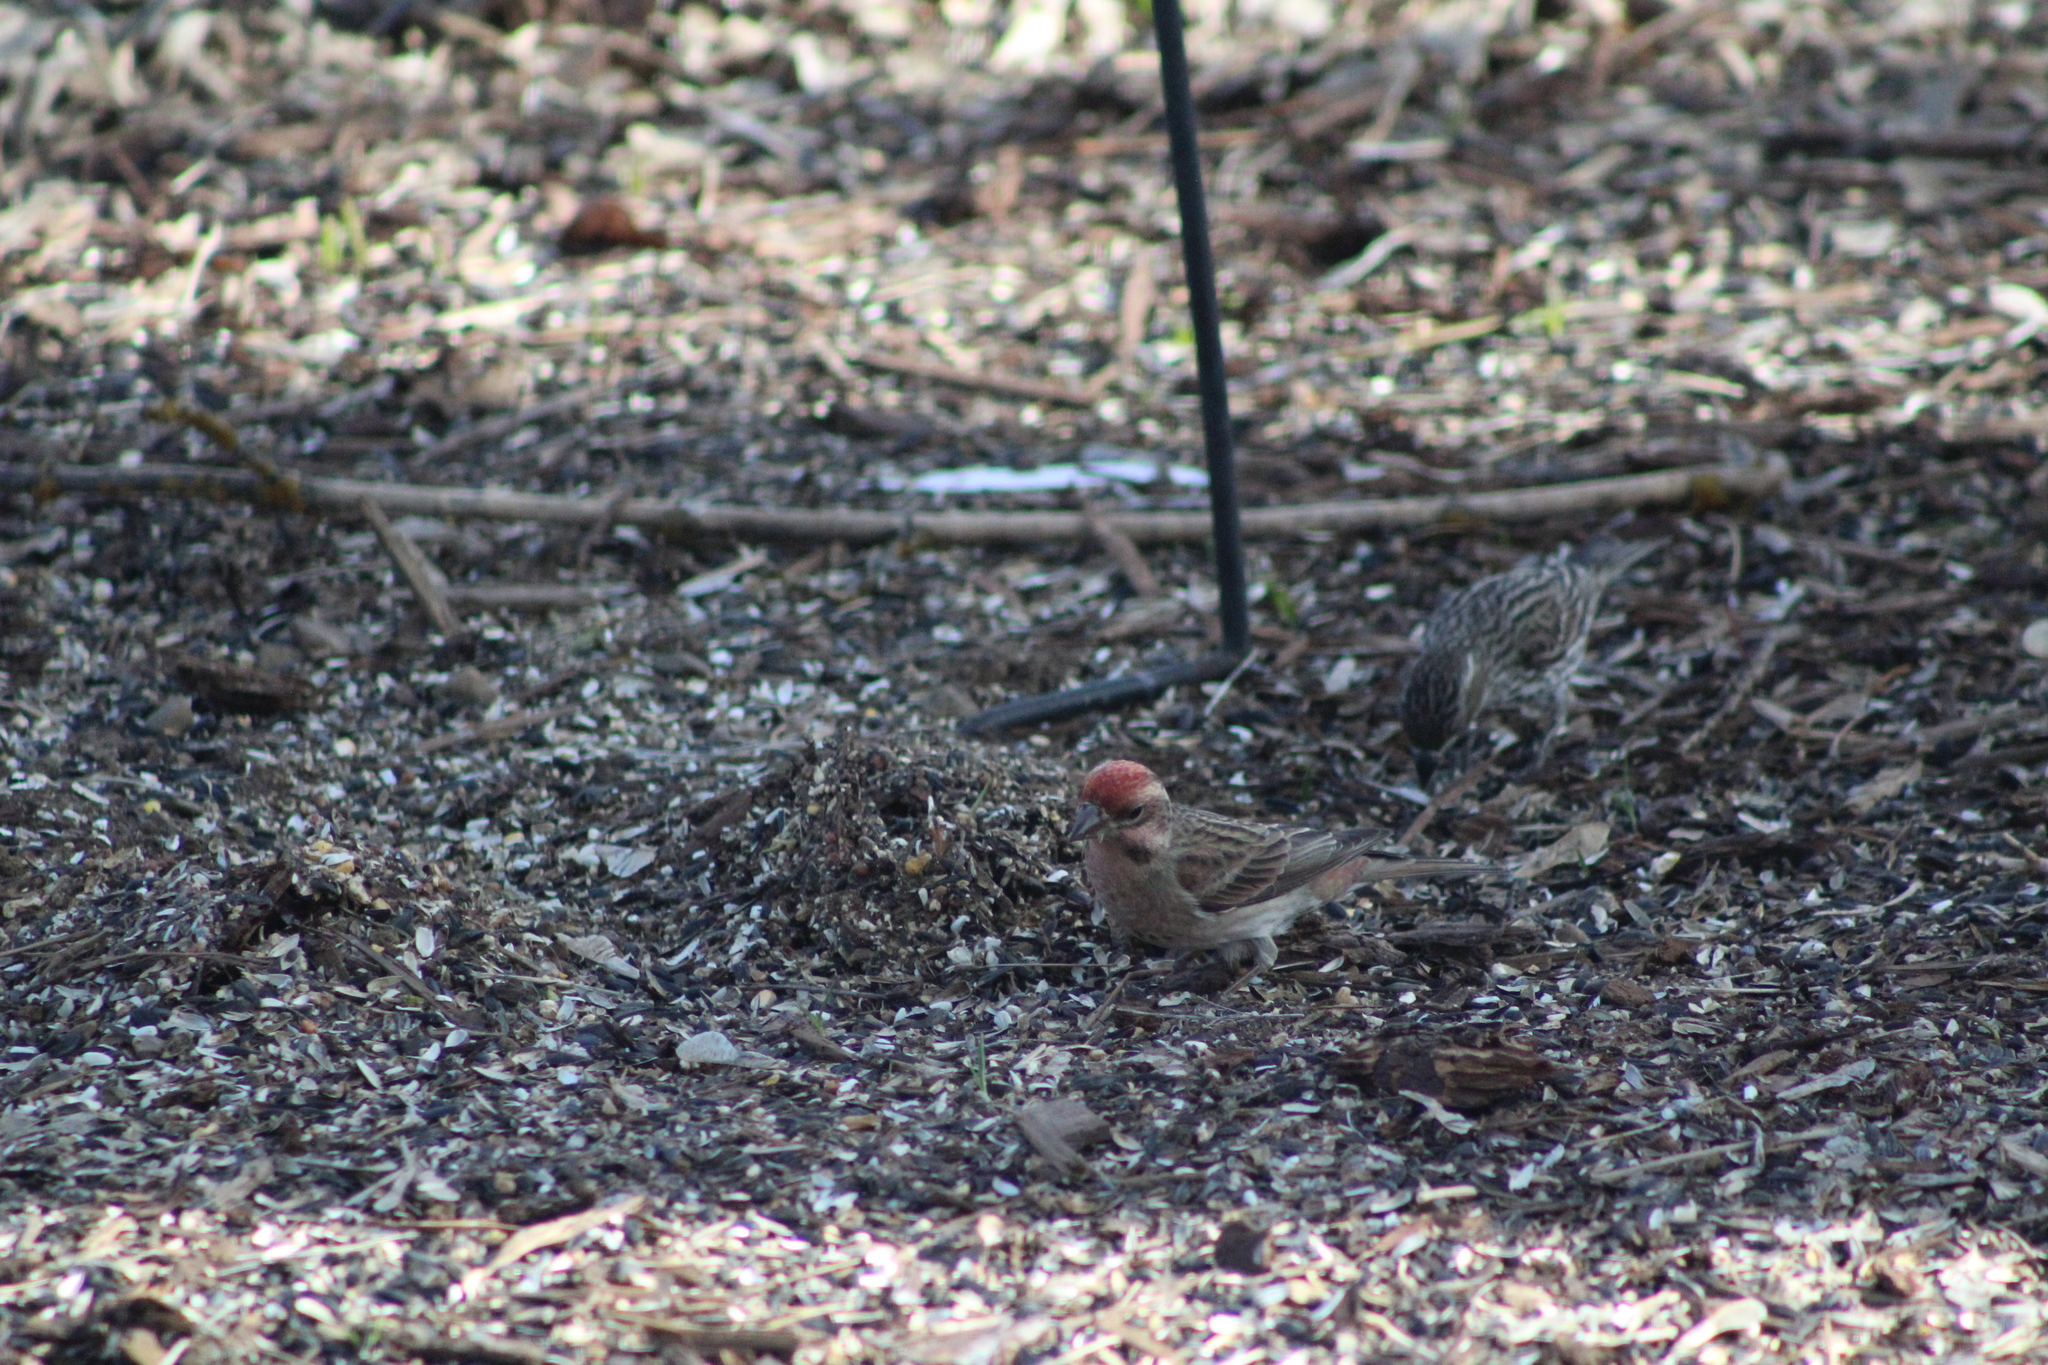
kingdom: Animalia
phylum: Chordata
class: Aves
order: Passeriformes
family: Fringillidae
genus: Haemorhous
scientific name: Haemorhous cassinii
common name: Cassin's finch
